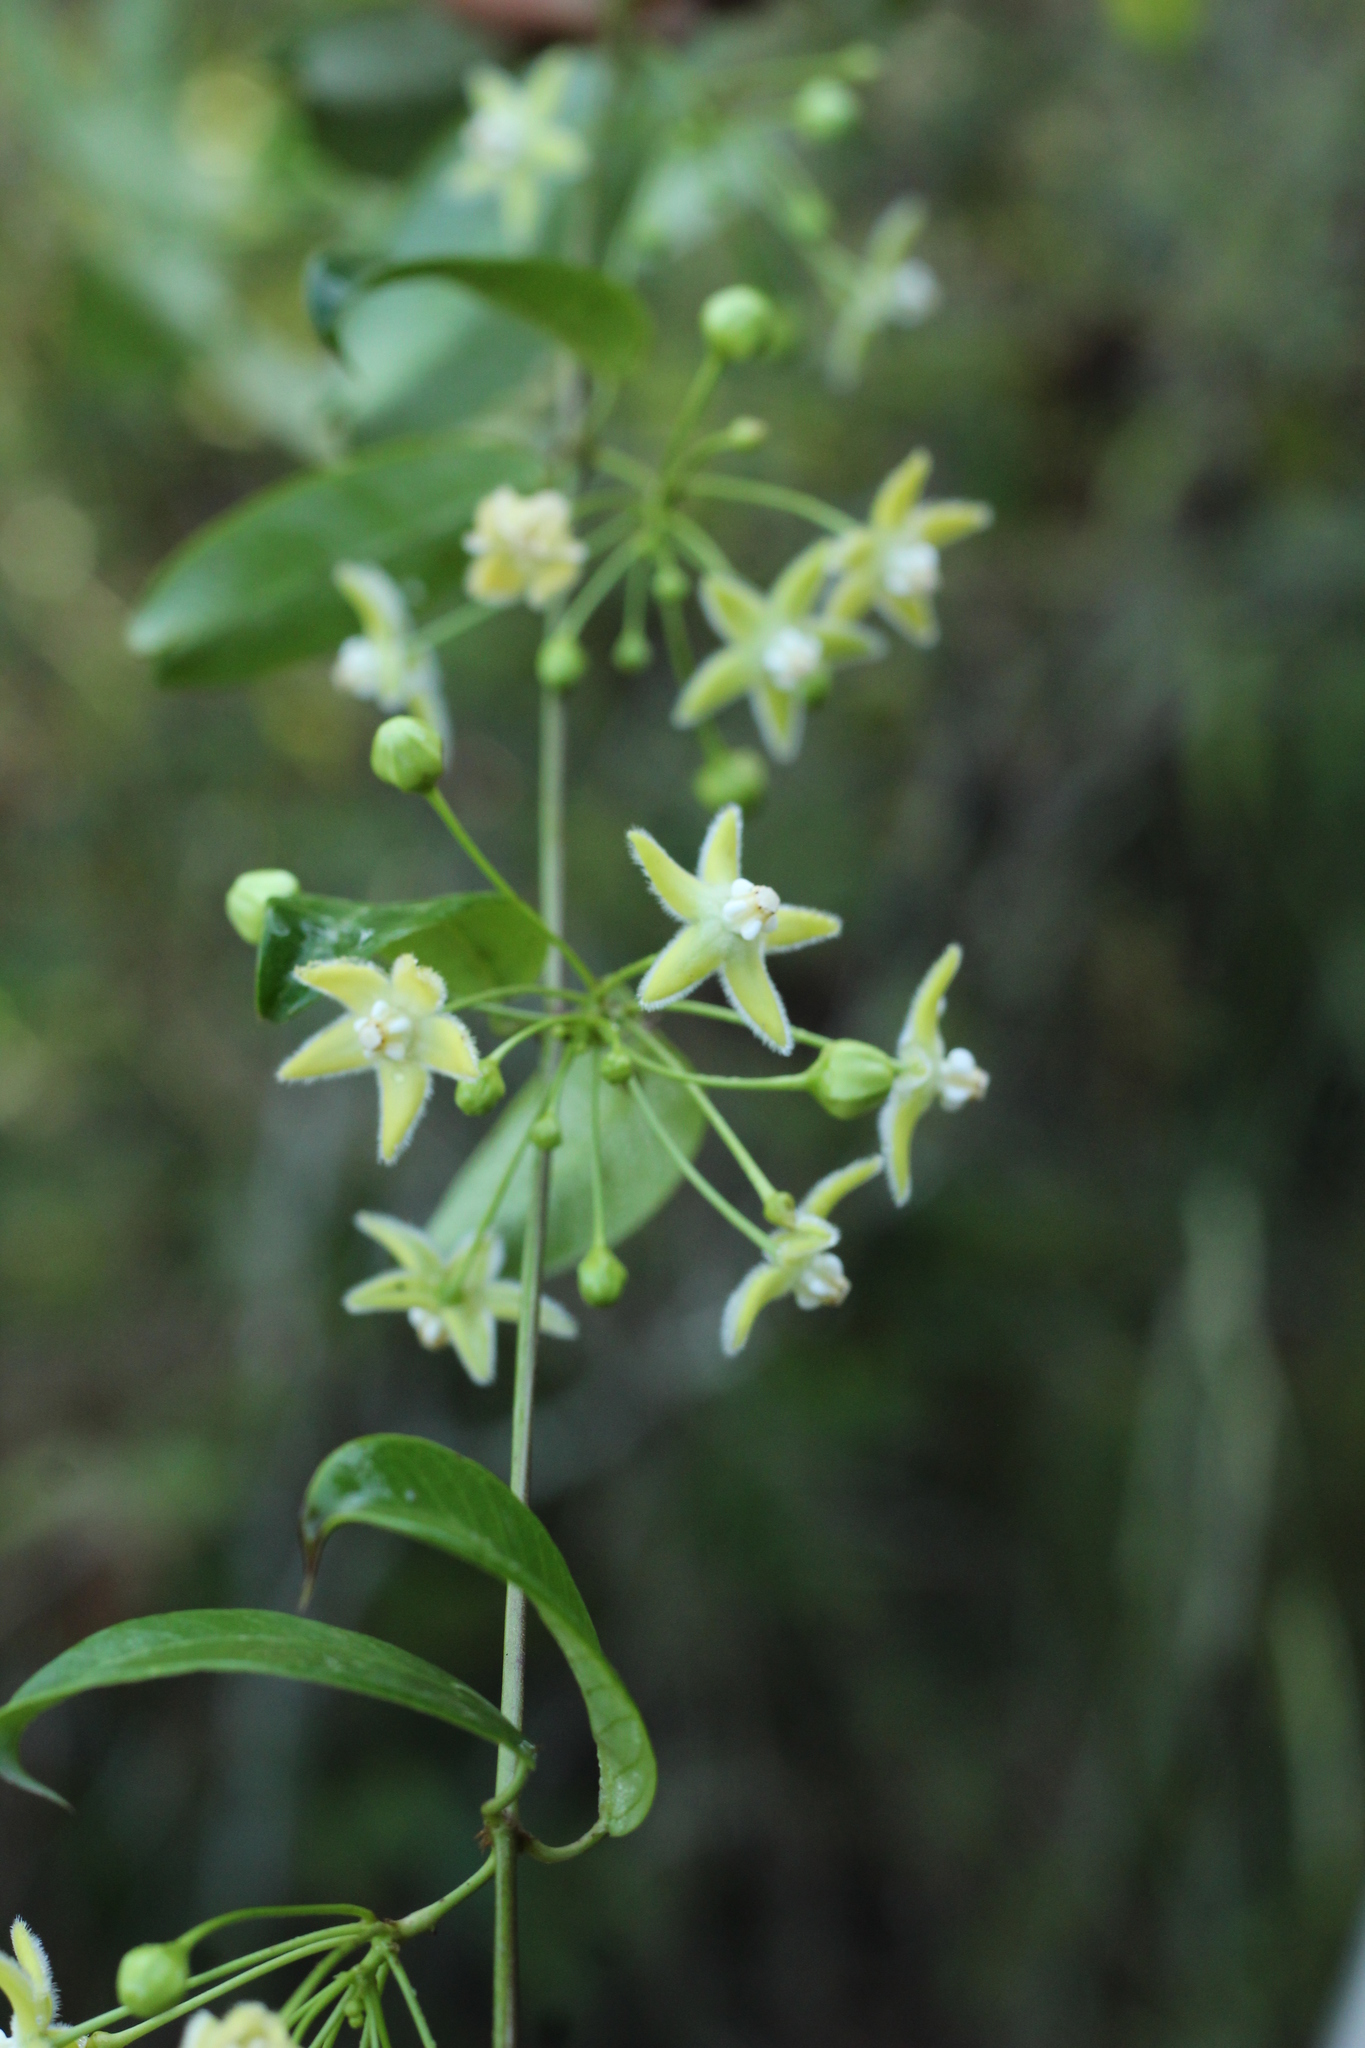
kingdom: Plantae
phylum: Tracheophyta
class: Magnoliopsida
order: Gentianales
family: Apocynaceae
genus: Vailia
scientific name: Vailia anomala
